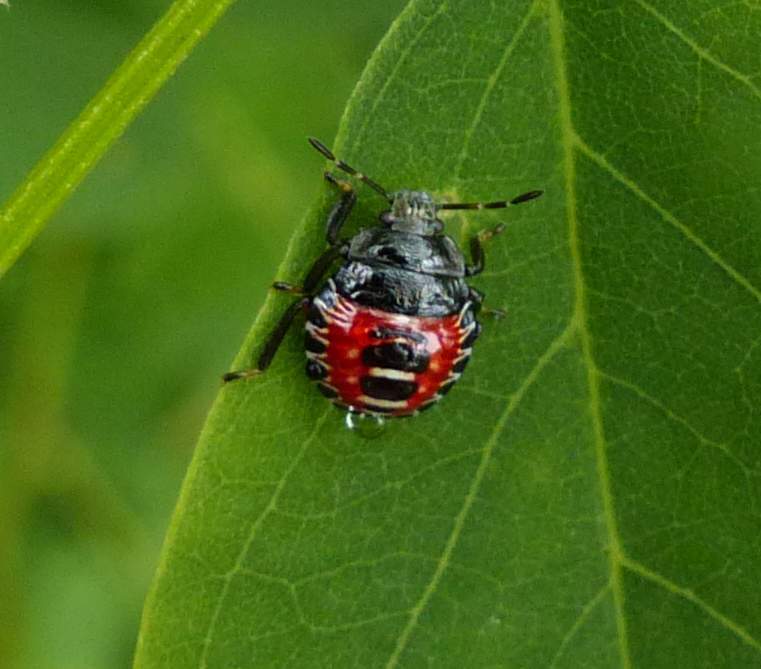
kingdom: Animalia
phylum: Arthropoda
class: Insecta
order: Hemiptera
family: Pentatomidae
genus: Podisus
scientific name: Podisus placidus
